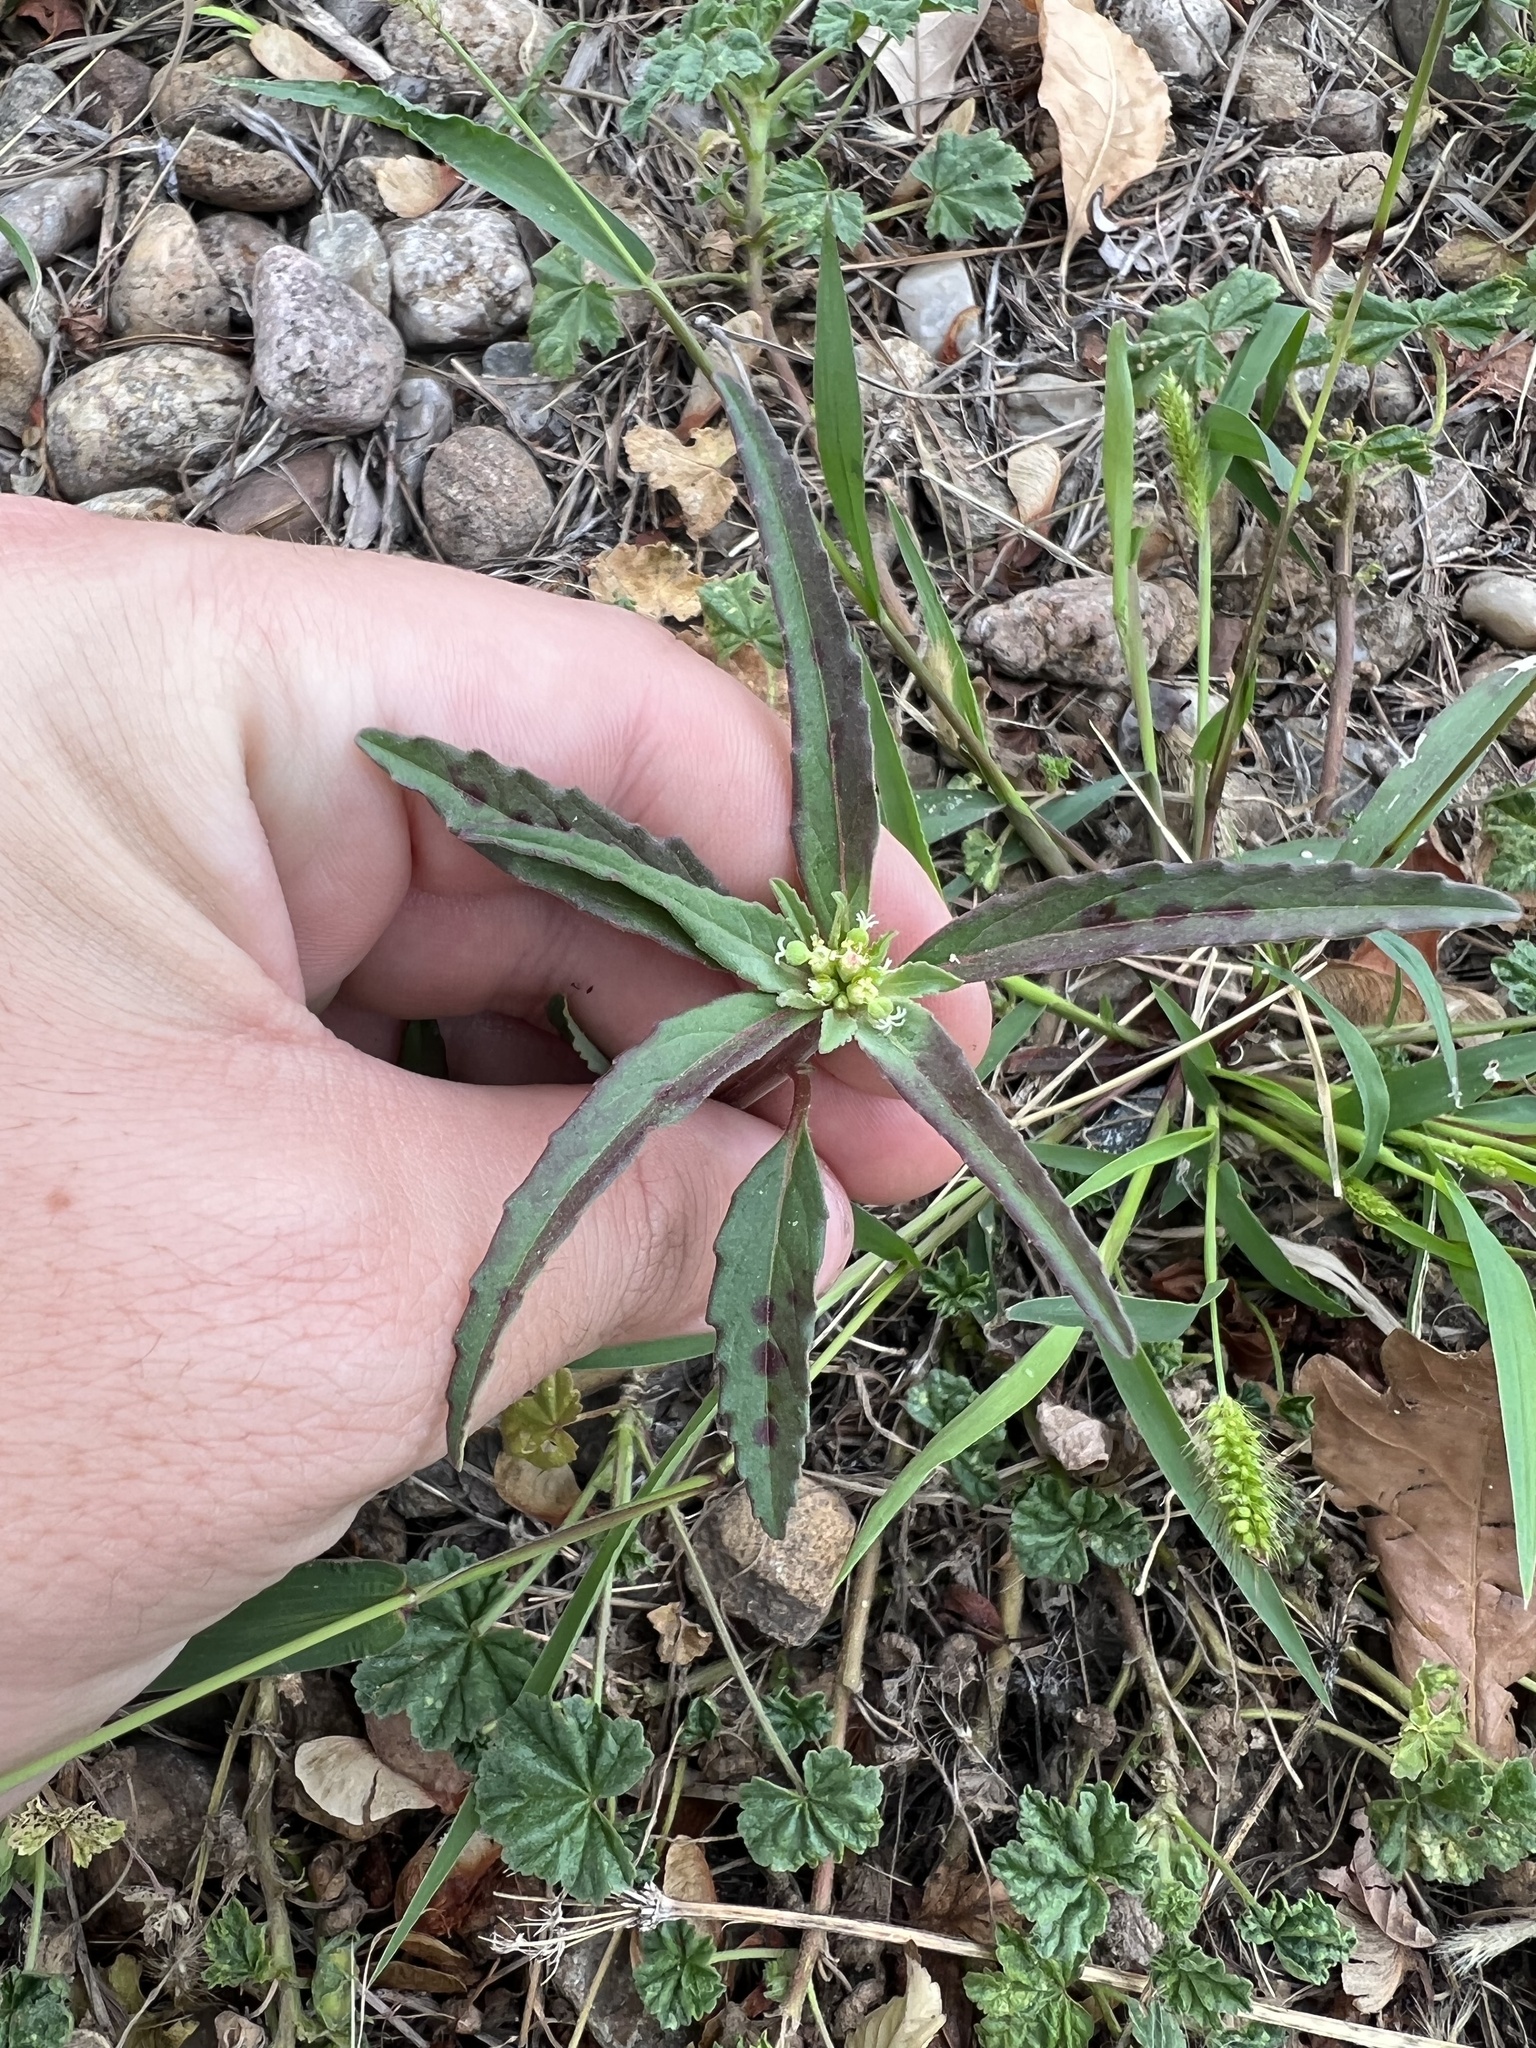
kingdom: Plantae
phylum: Tracheophyta
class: Magnoliopsida
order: Malpighiales
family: Euphorbiaceae
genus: Euphorbia
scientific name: Euphorbia davidii
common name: David's spurge
